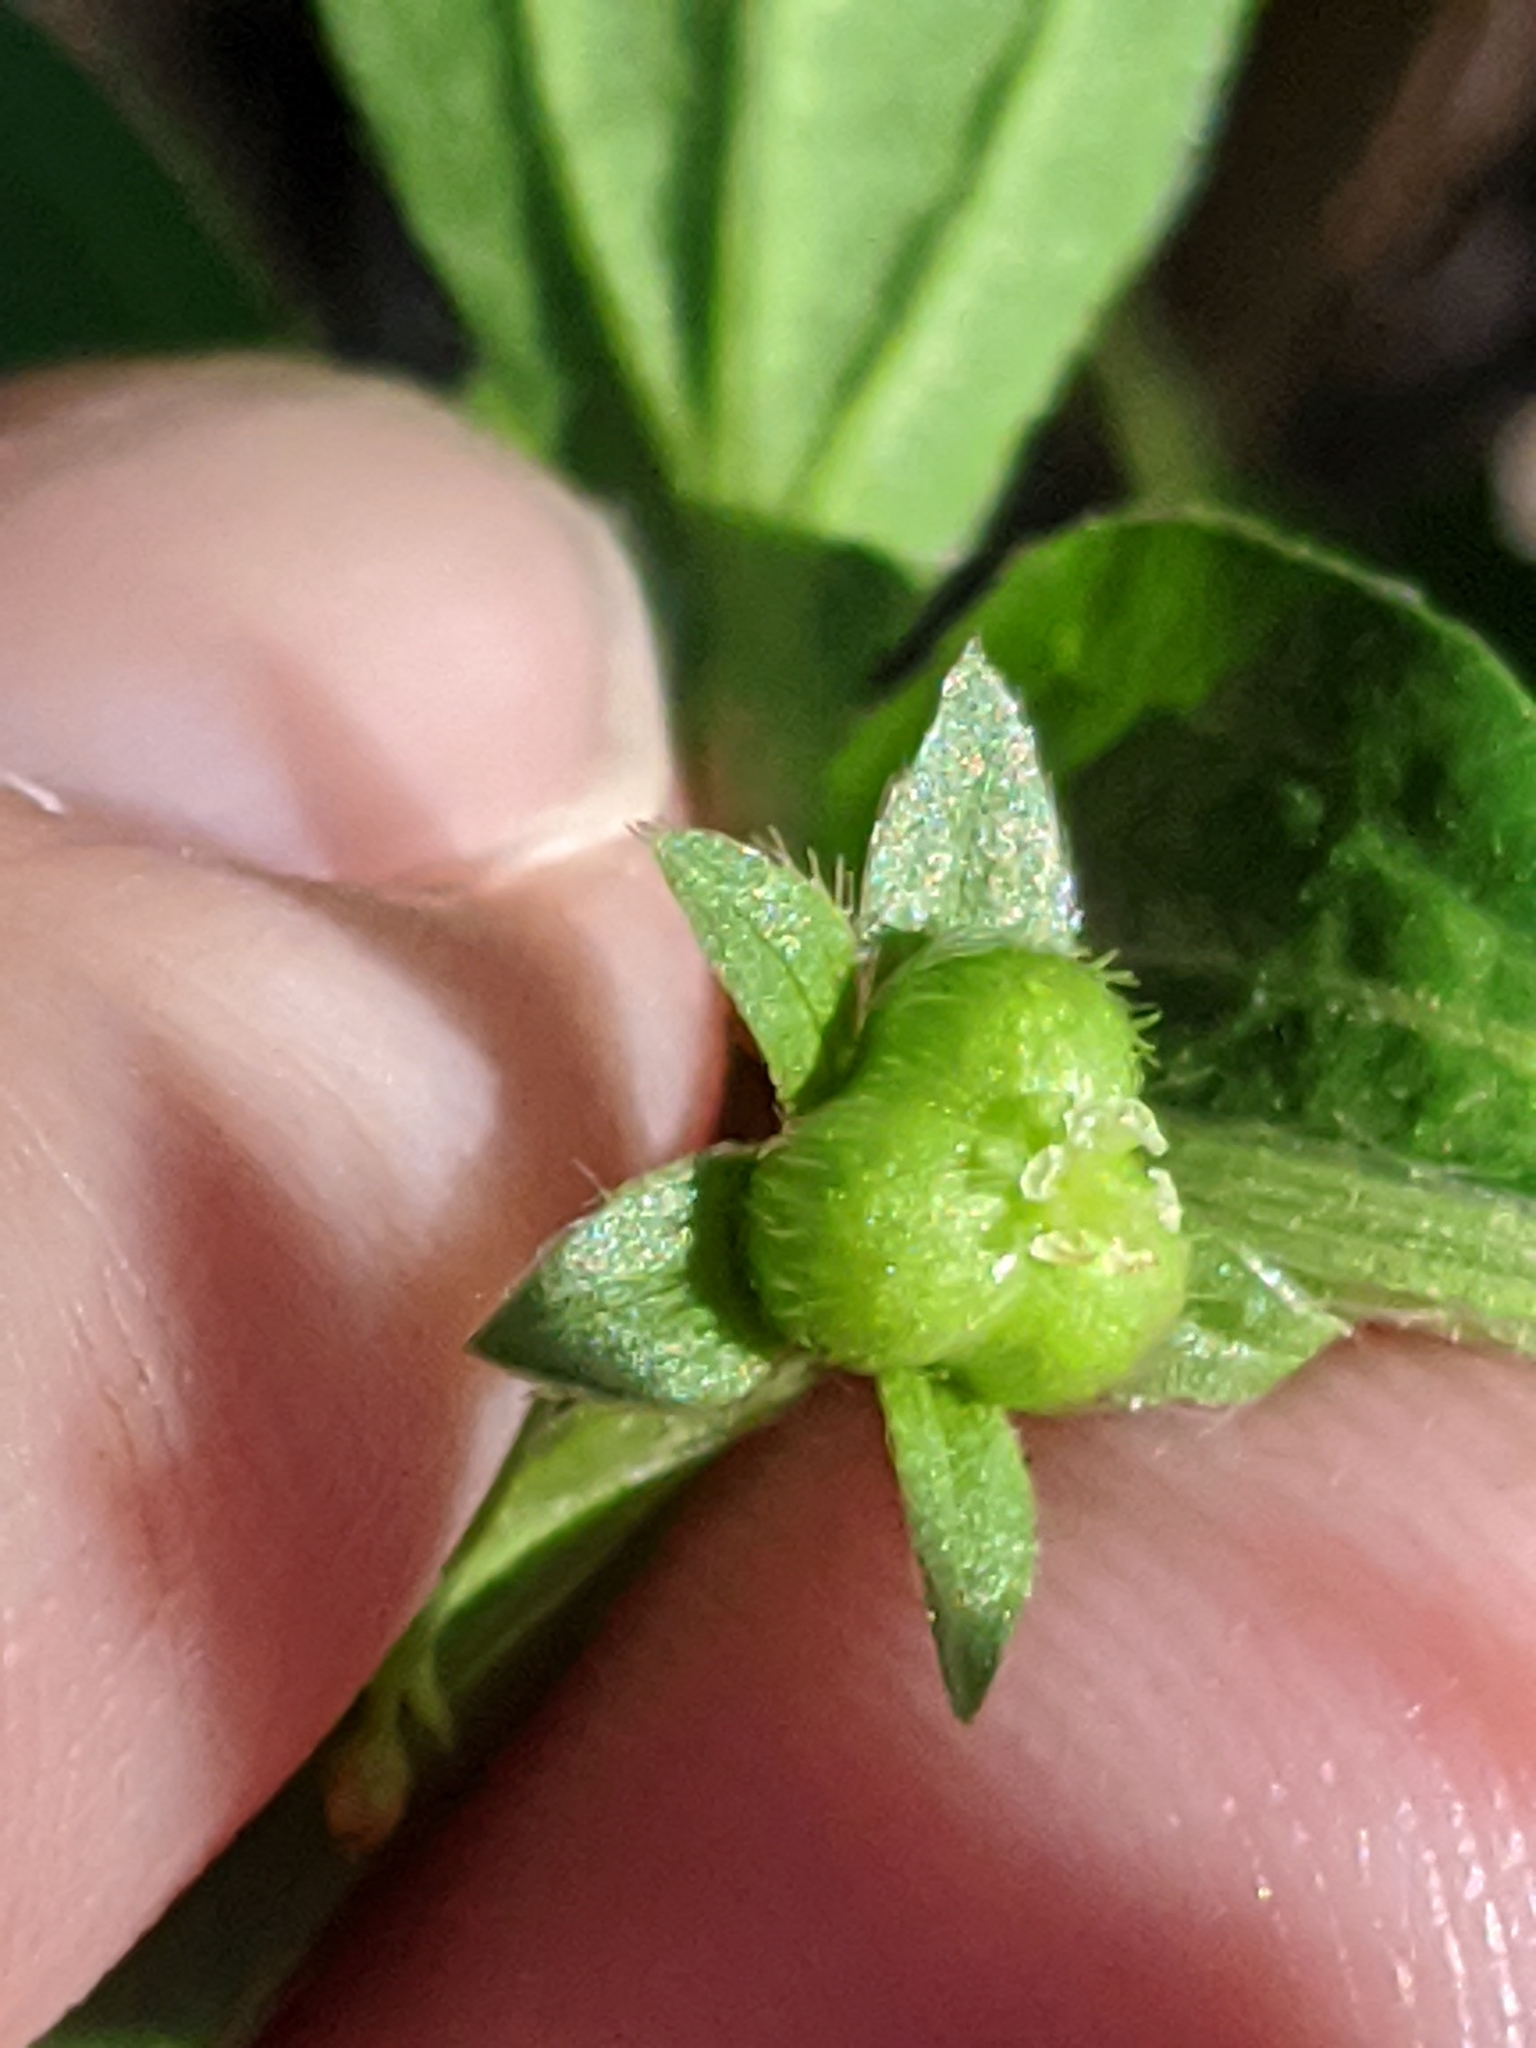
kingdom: Plantae
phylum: Tracheophyta
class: Magnoliopsida
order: Malpighiales
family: Euphorbiaceae
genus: Ditaxis
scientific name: Ditaxis humilis
